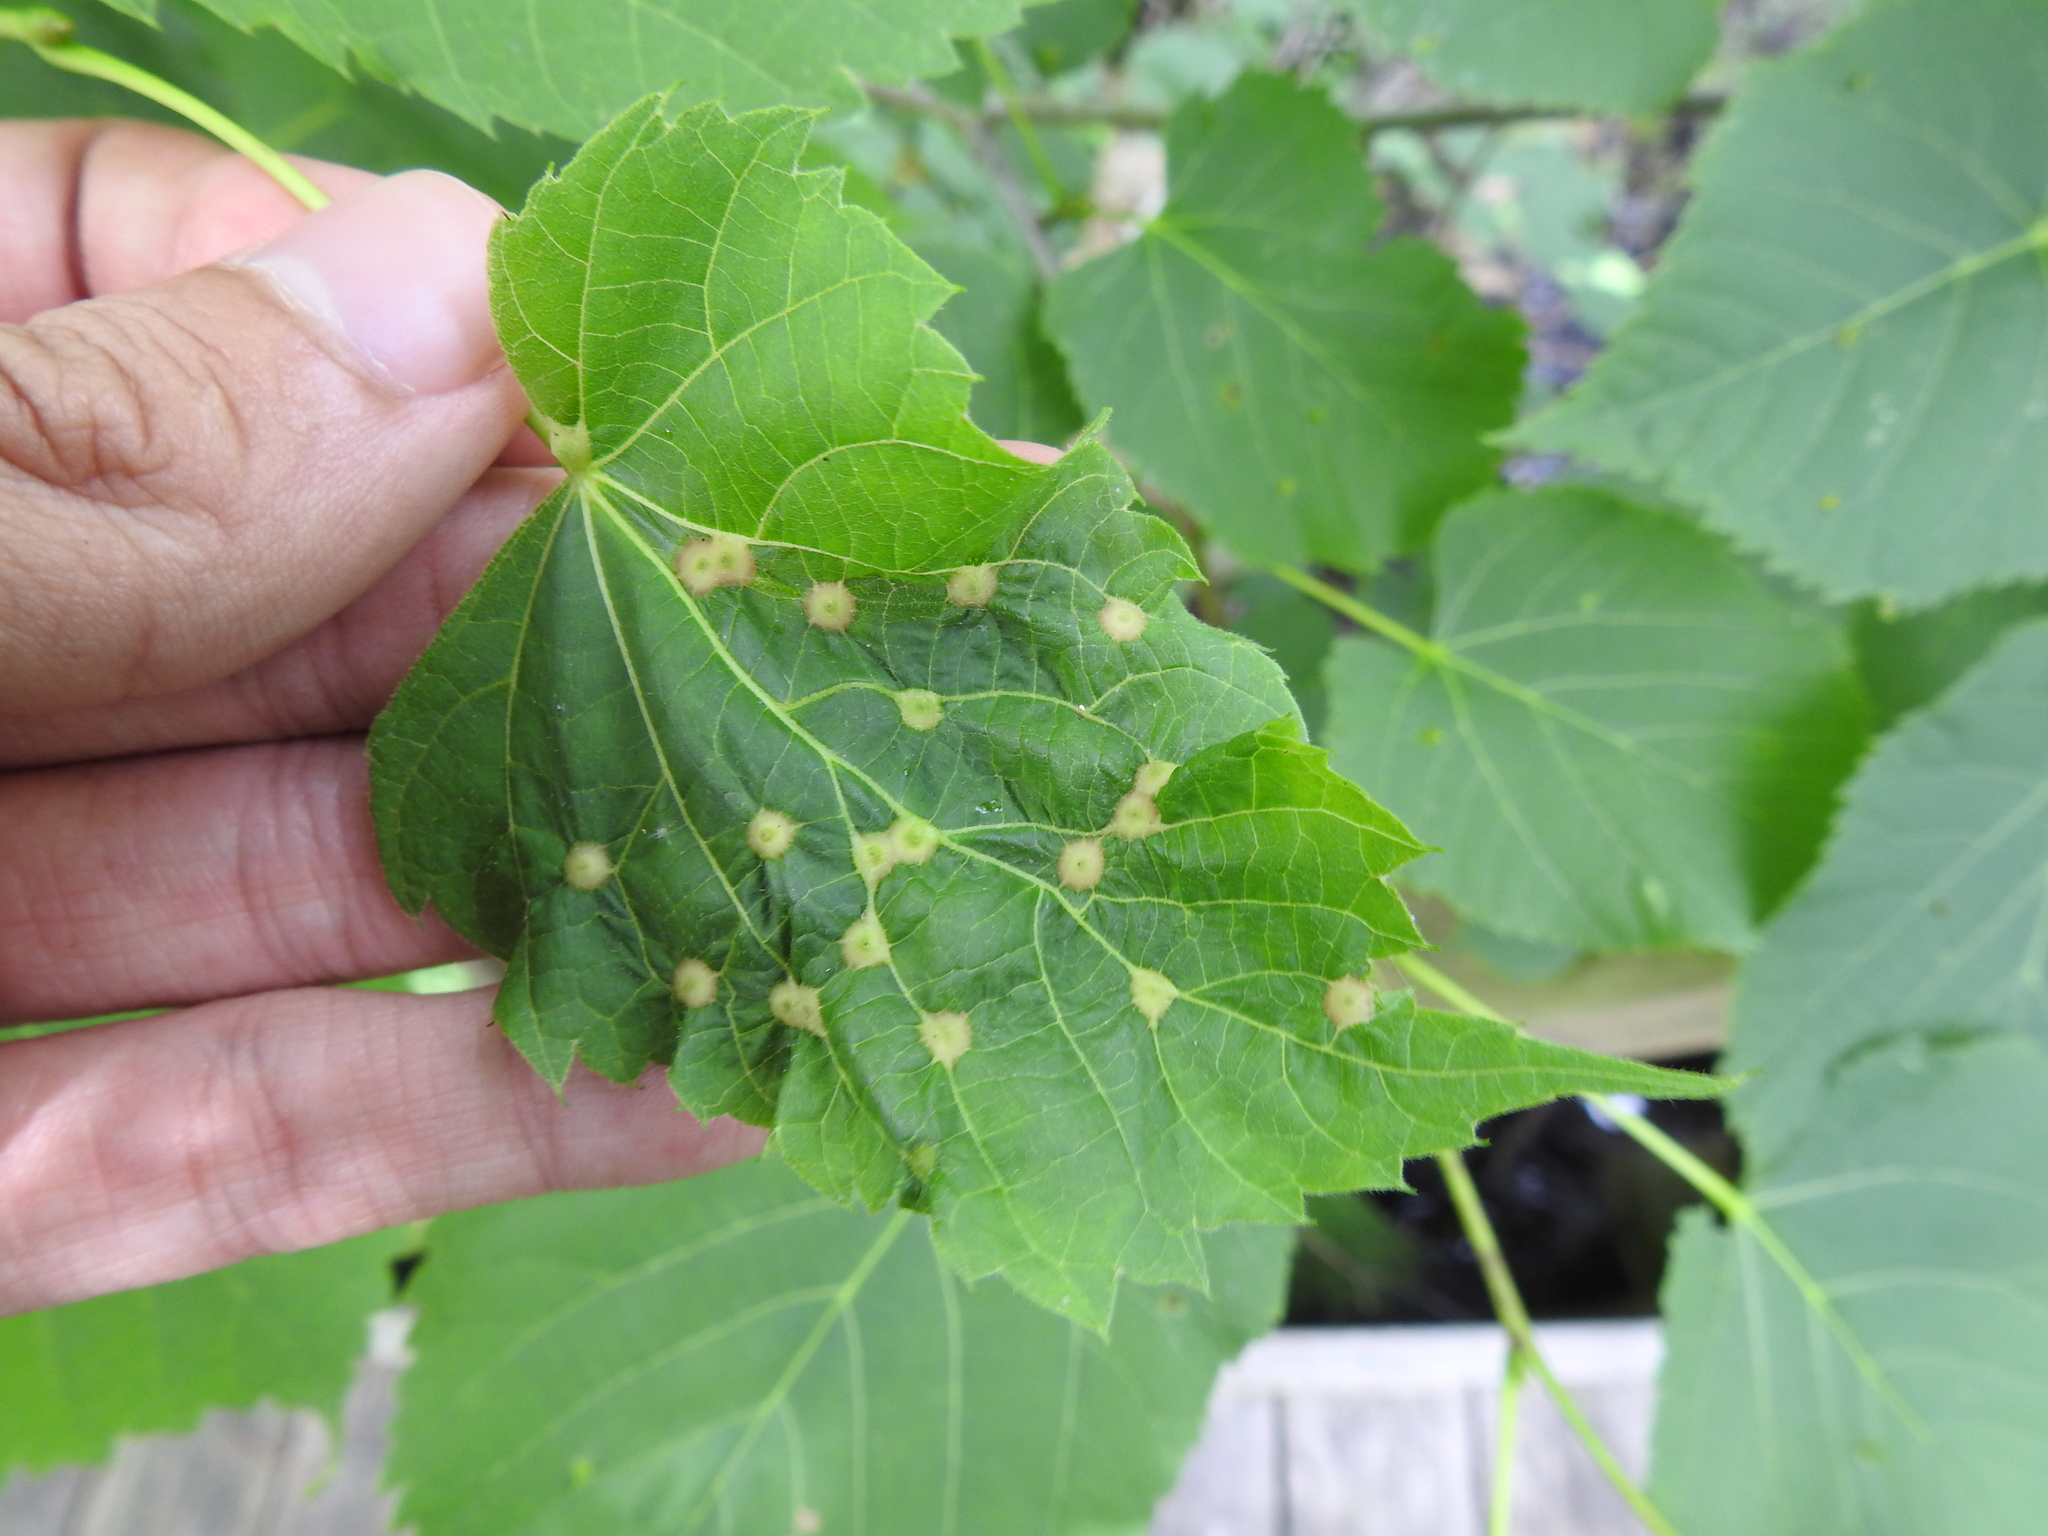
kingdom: Animalia
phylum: Arthropoda
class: Insecta
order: Diptera
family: Cecidomyiidae
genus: Contarinia
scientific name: Contarinia verrucicola
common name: Linden wart gall midge
